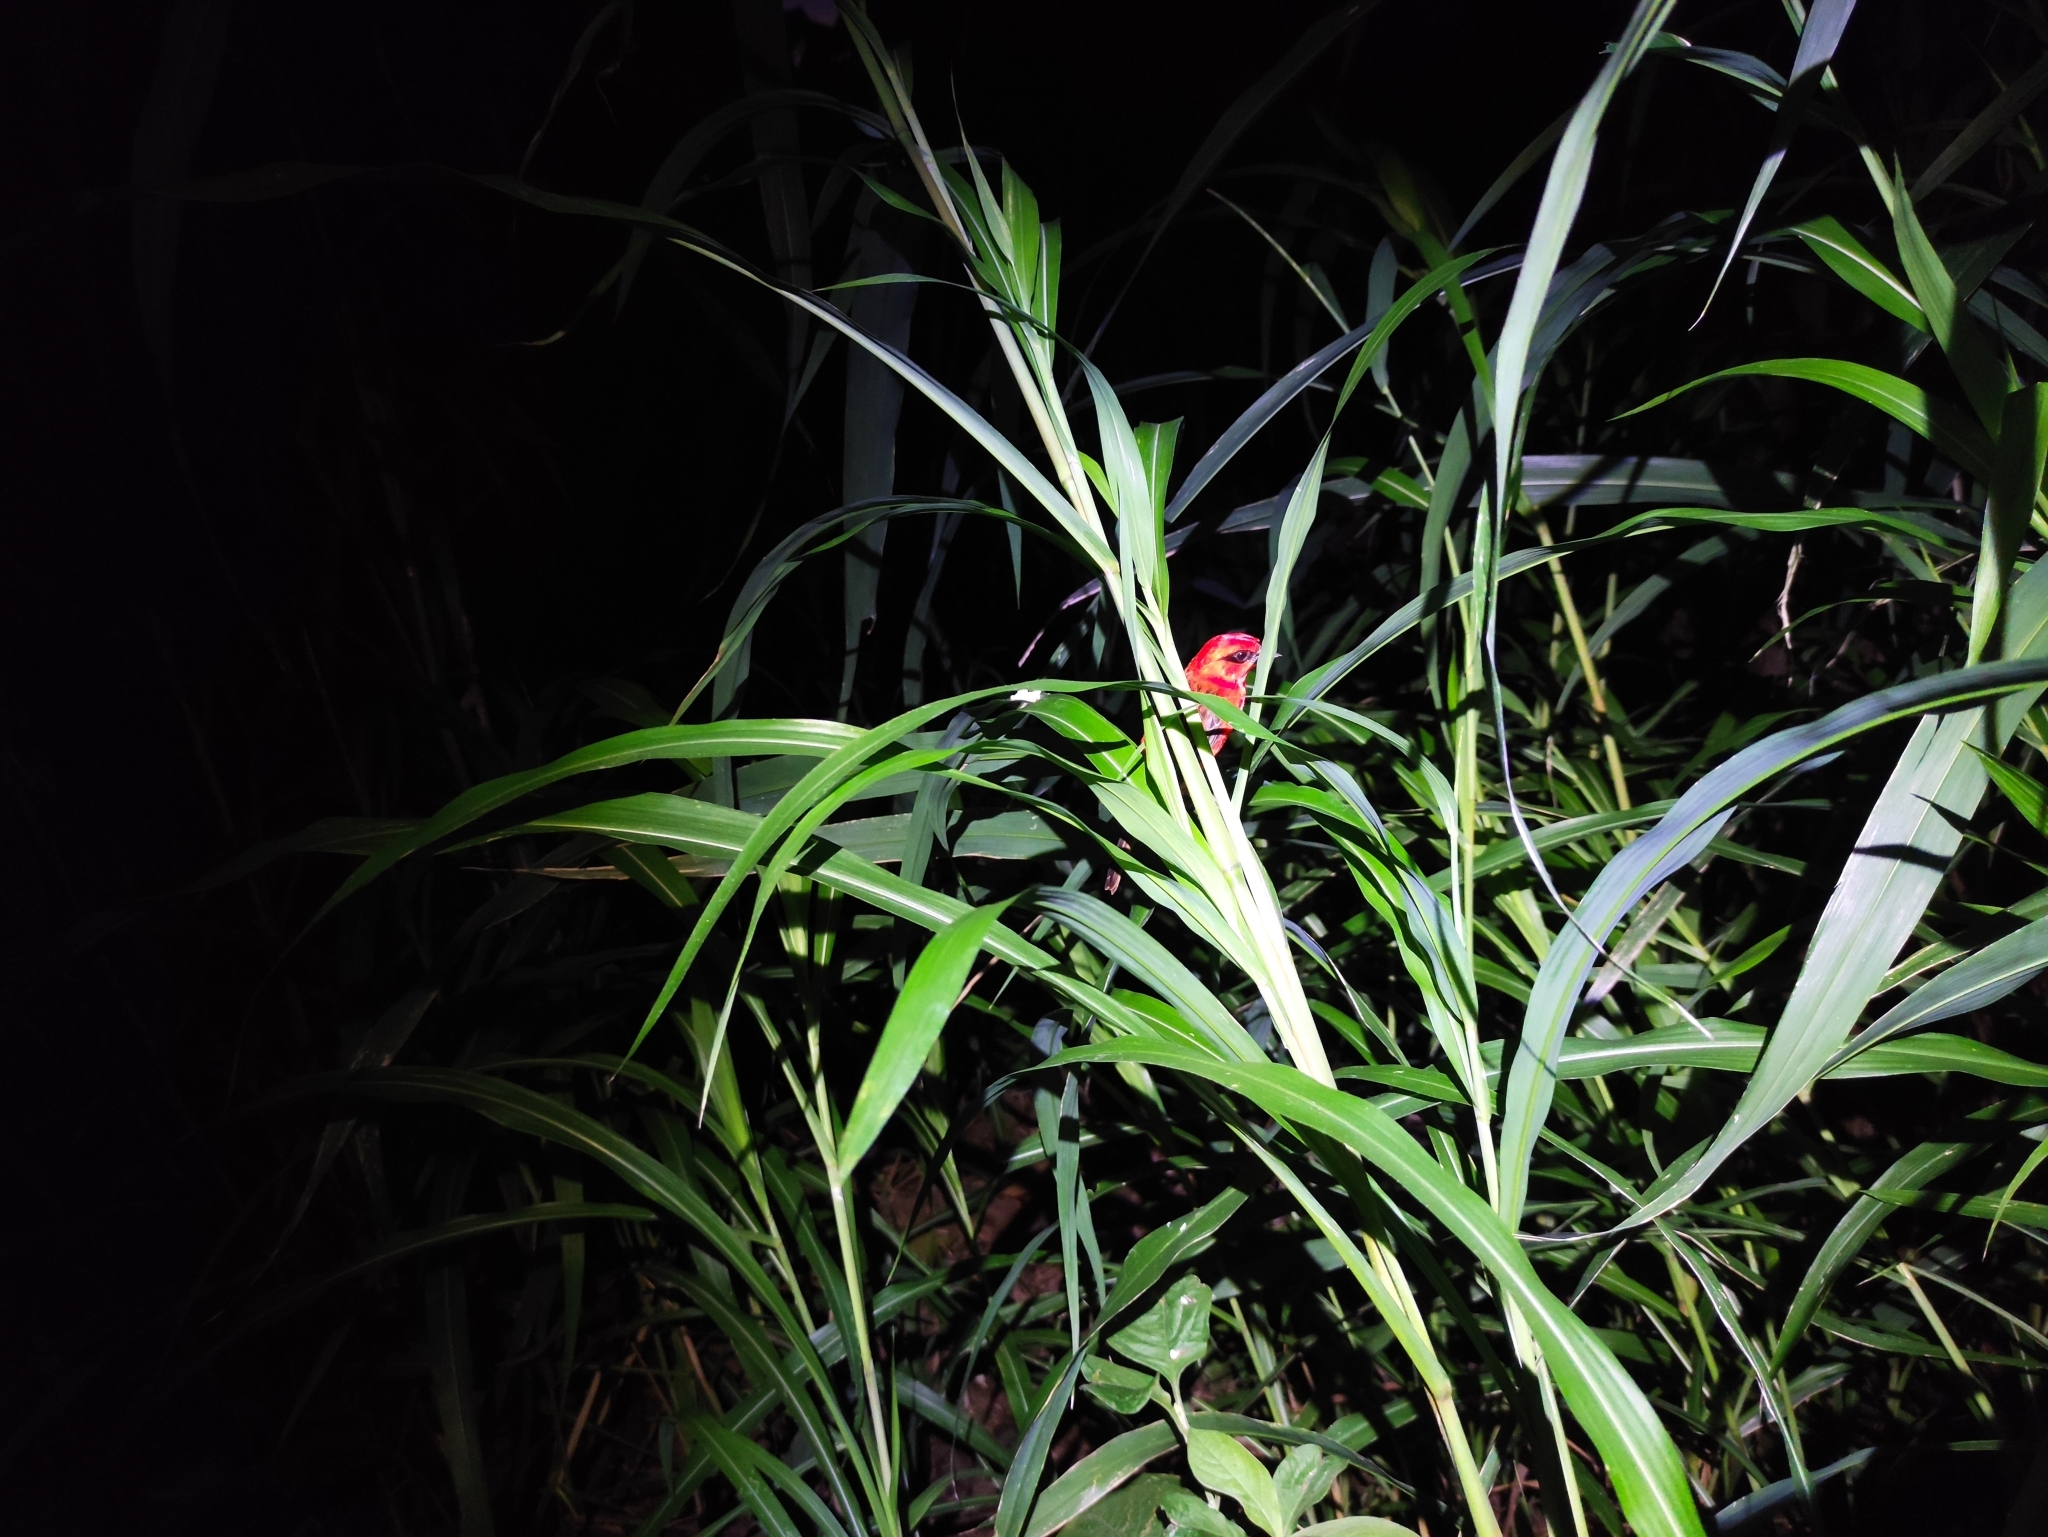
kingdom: Animalia
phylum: Chordata
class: Aves
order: Passeriformes
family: Ploceidae
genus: Foudia
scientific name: Foudia madagascariensis
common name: Red fody
